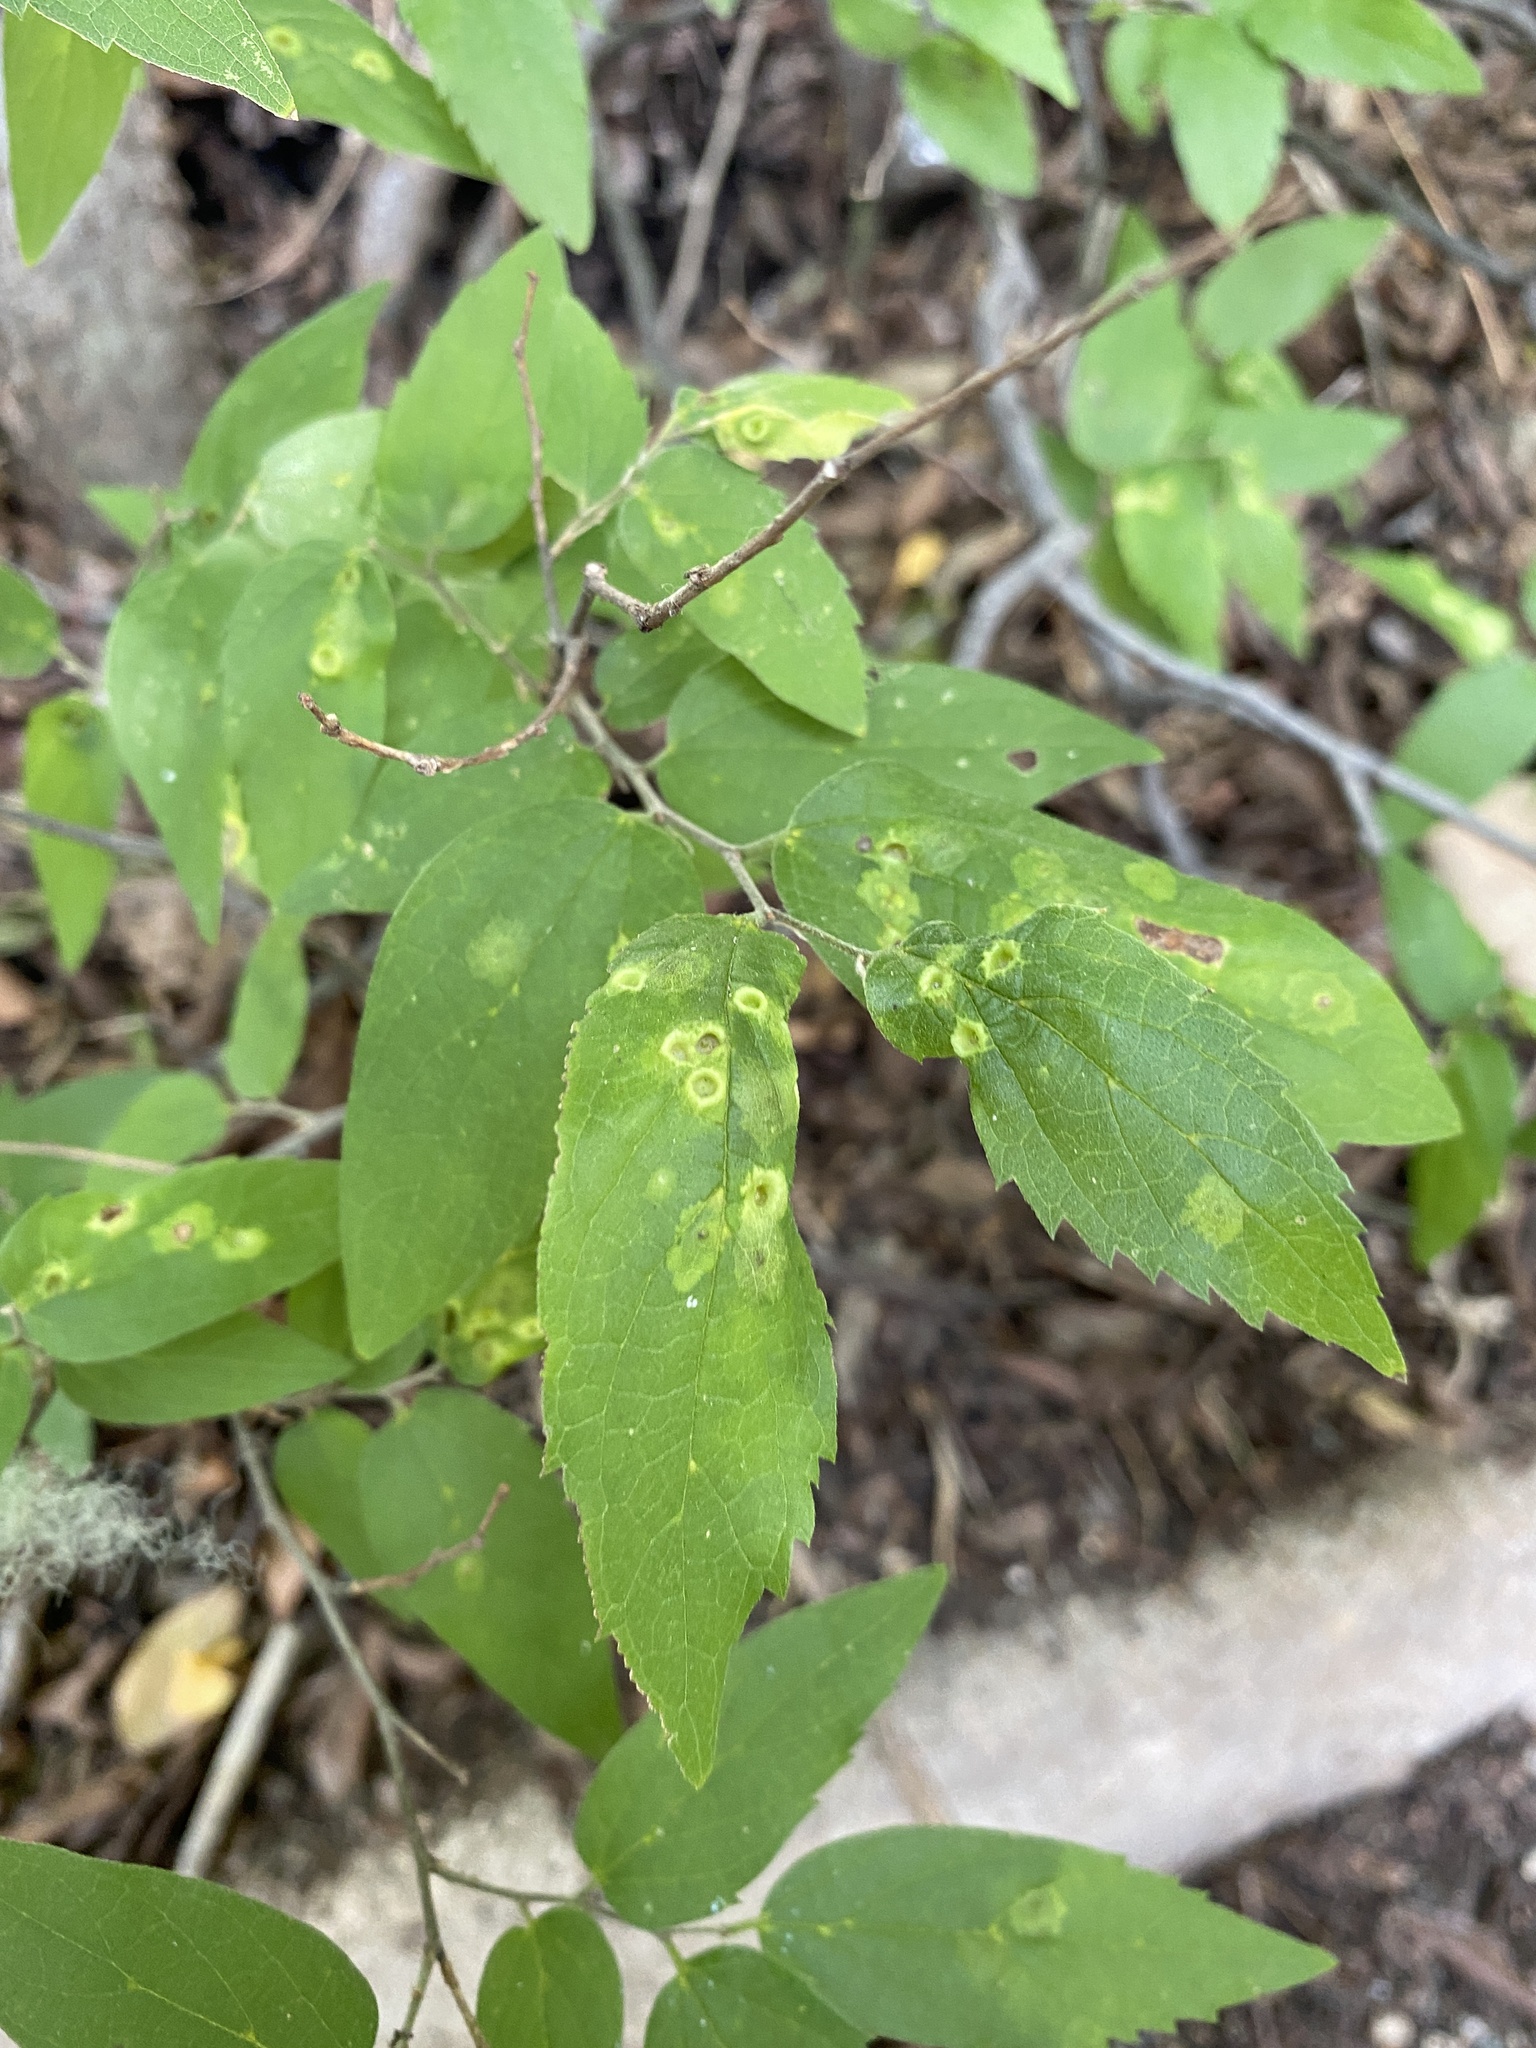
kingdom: Animalia
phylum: Arthropoda
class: Insecta
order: Hemiptera
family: Aphalaridae
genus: Pachypsylla
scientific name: Pachypsylla celtidismamma
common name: Hackberry nipplegall psyllid
